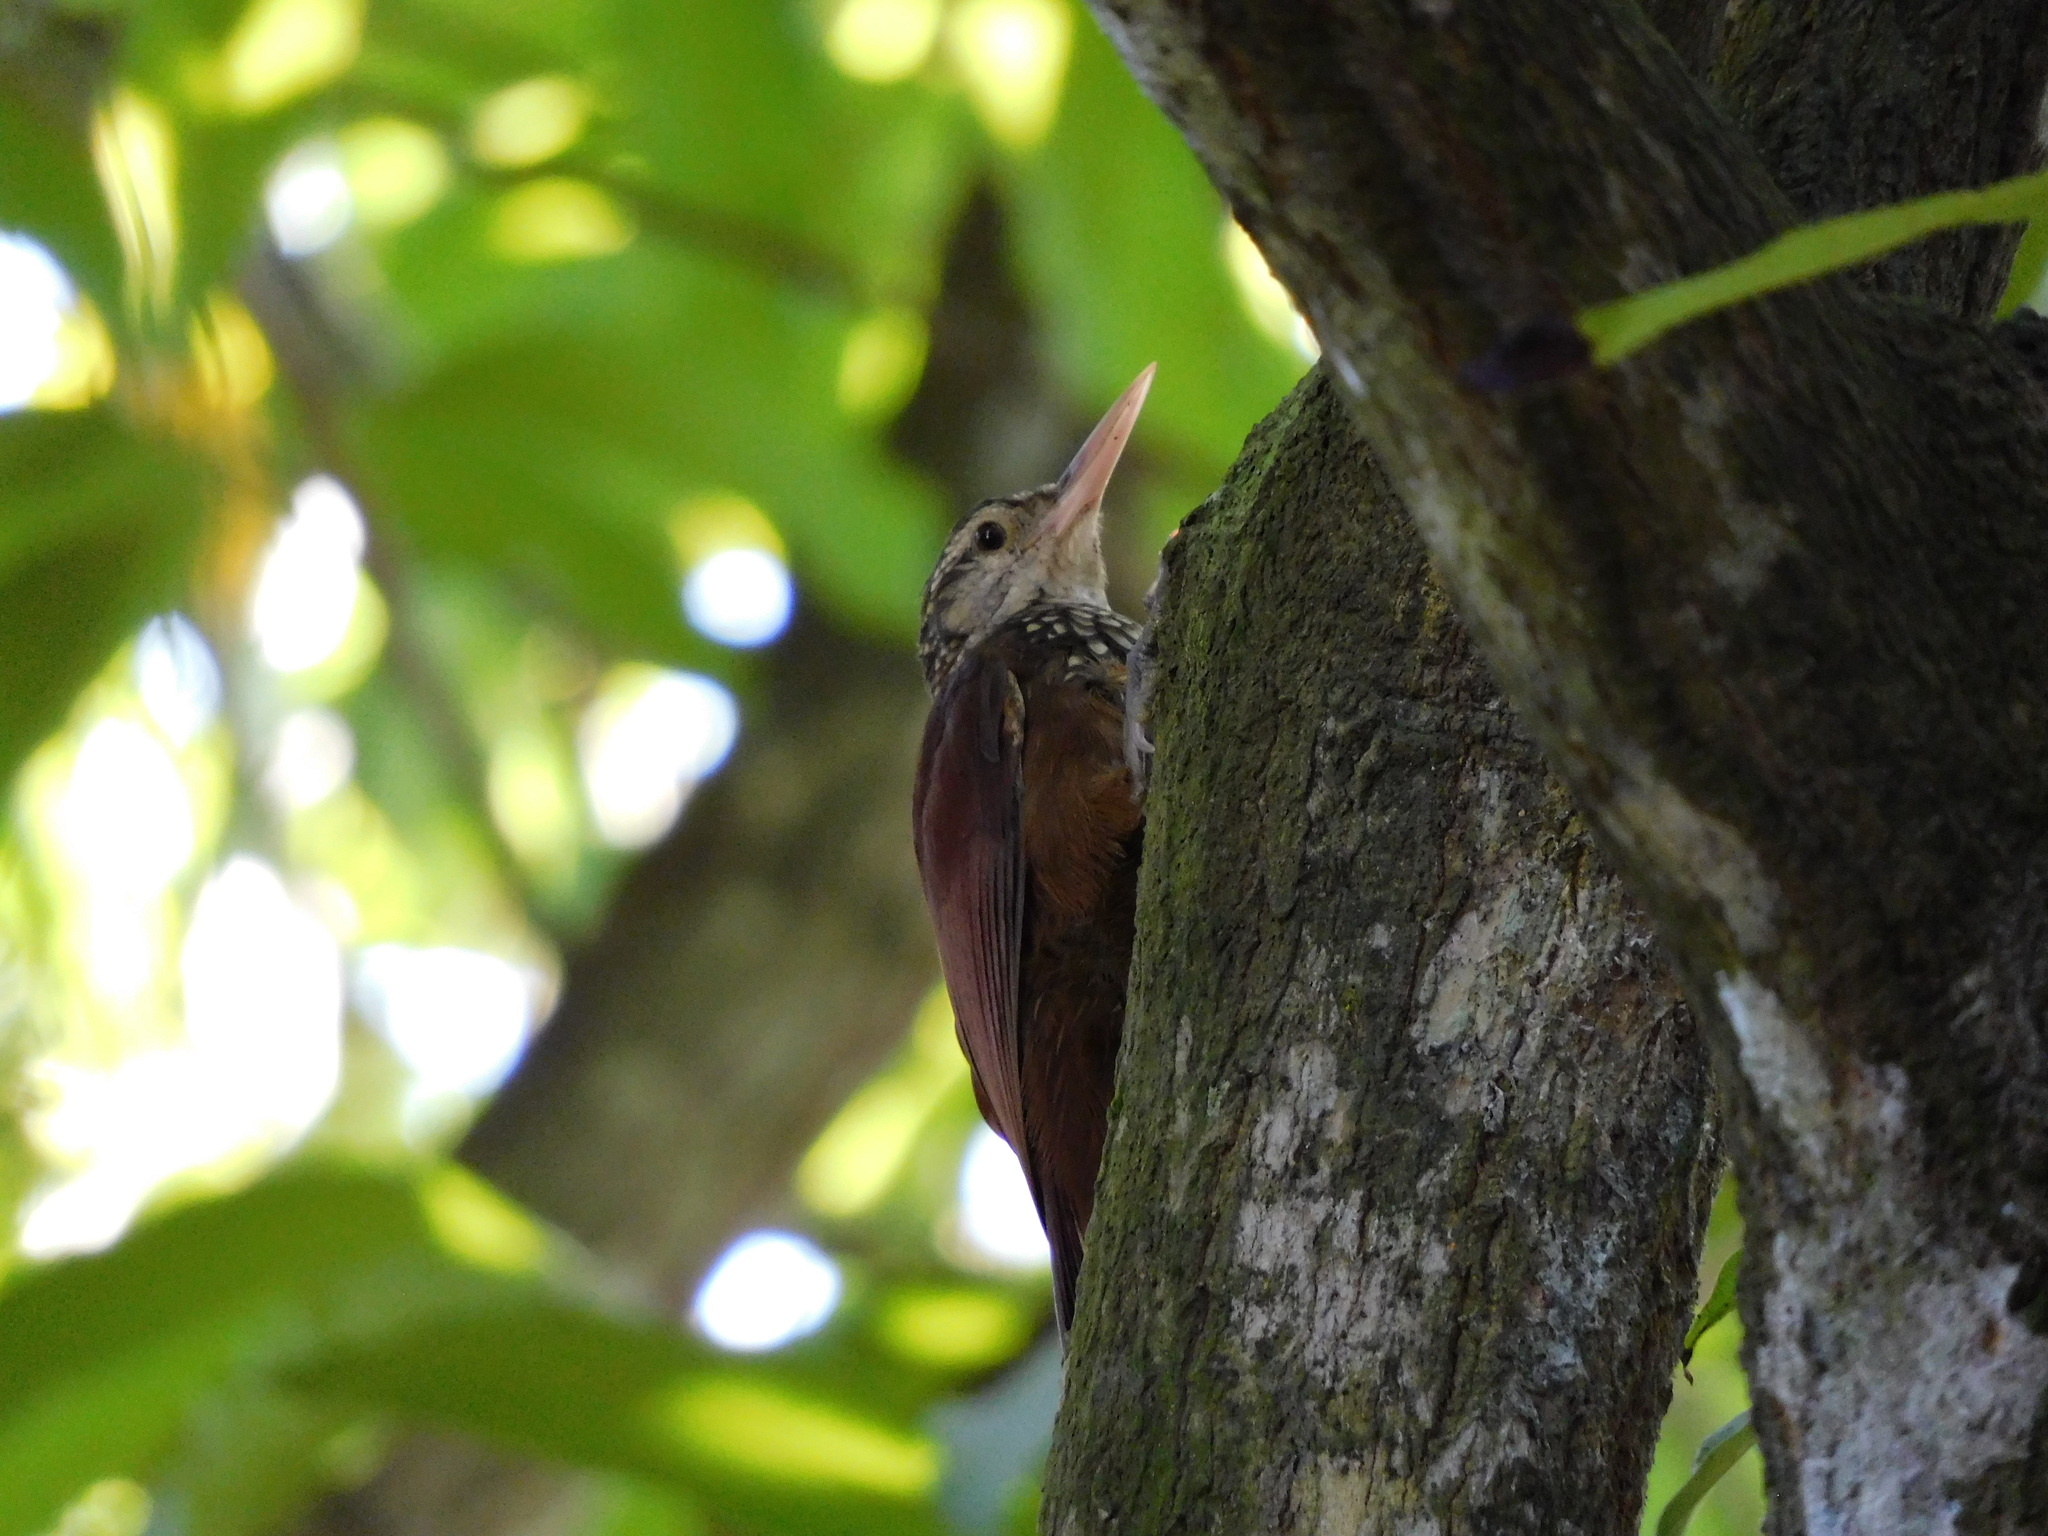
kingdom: Animalia
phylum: Chordata
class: Aves
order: Passeriformes
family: Furnariidae
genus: Xiphorhynchus
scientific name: Xiphorhynchus picus
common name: Straight-billed woodcreeper
